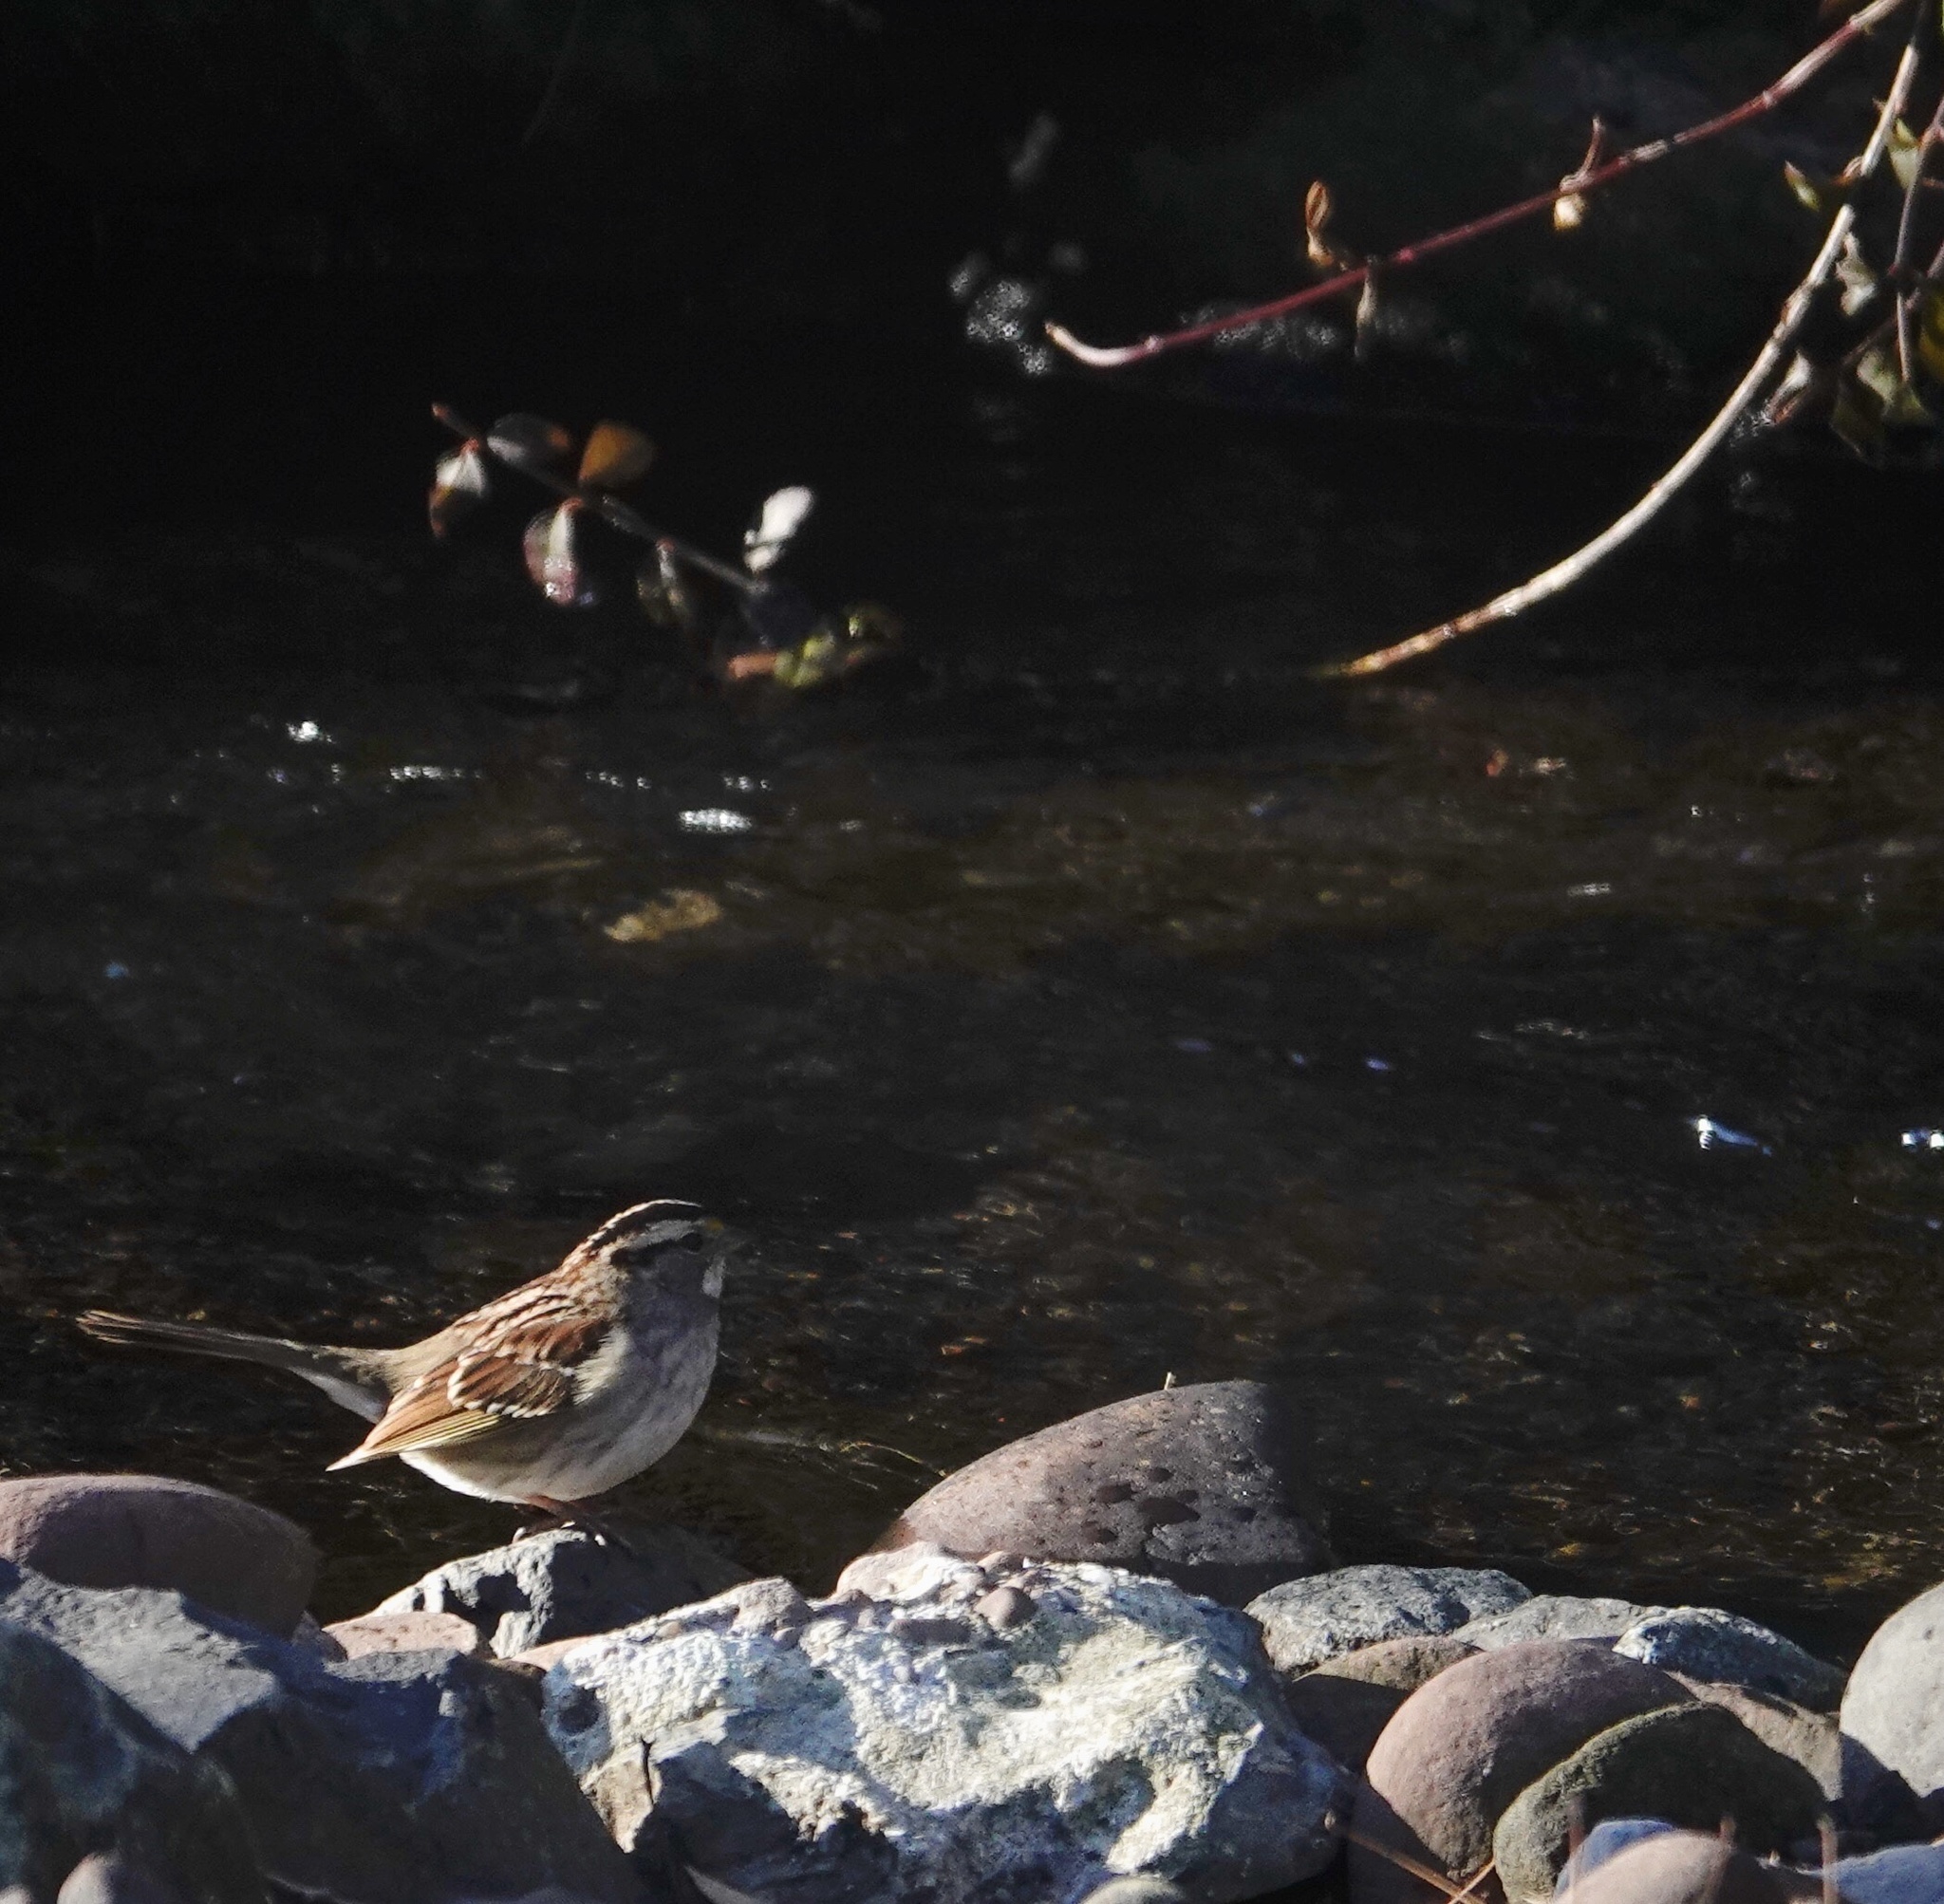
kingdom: Animalia
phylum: Chordata
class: Aves
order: Passeriformes
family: Passerellidae
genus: Zonotrichia
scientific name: Zonotrichia albicollis
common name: White-throated sparrow
